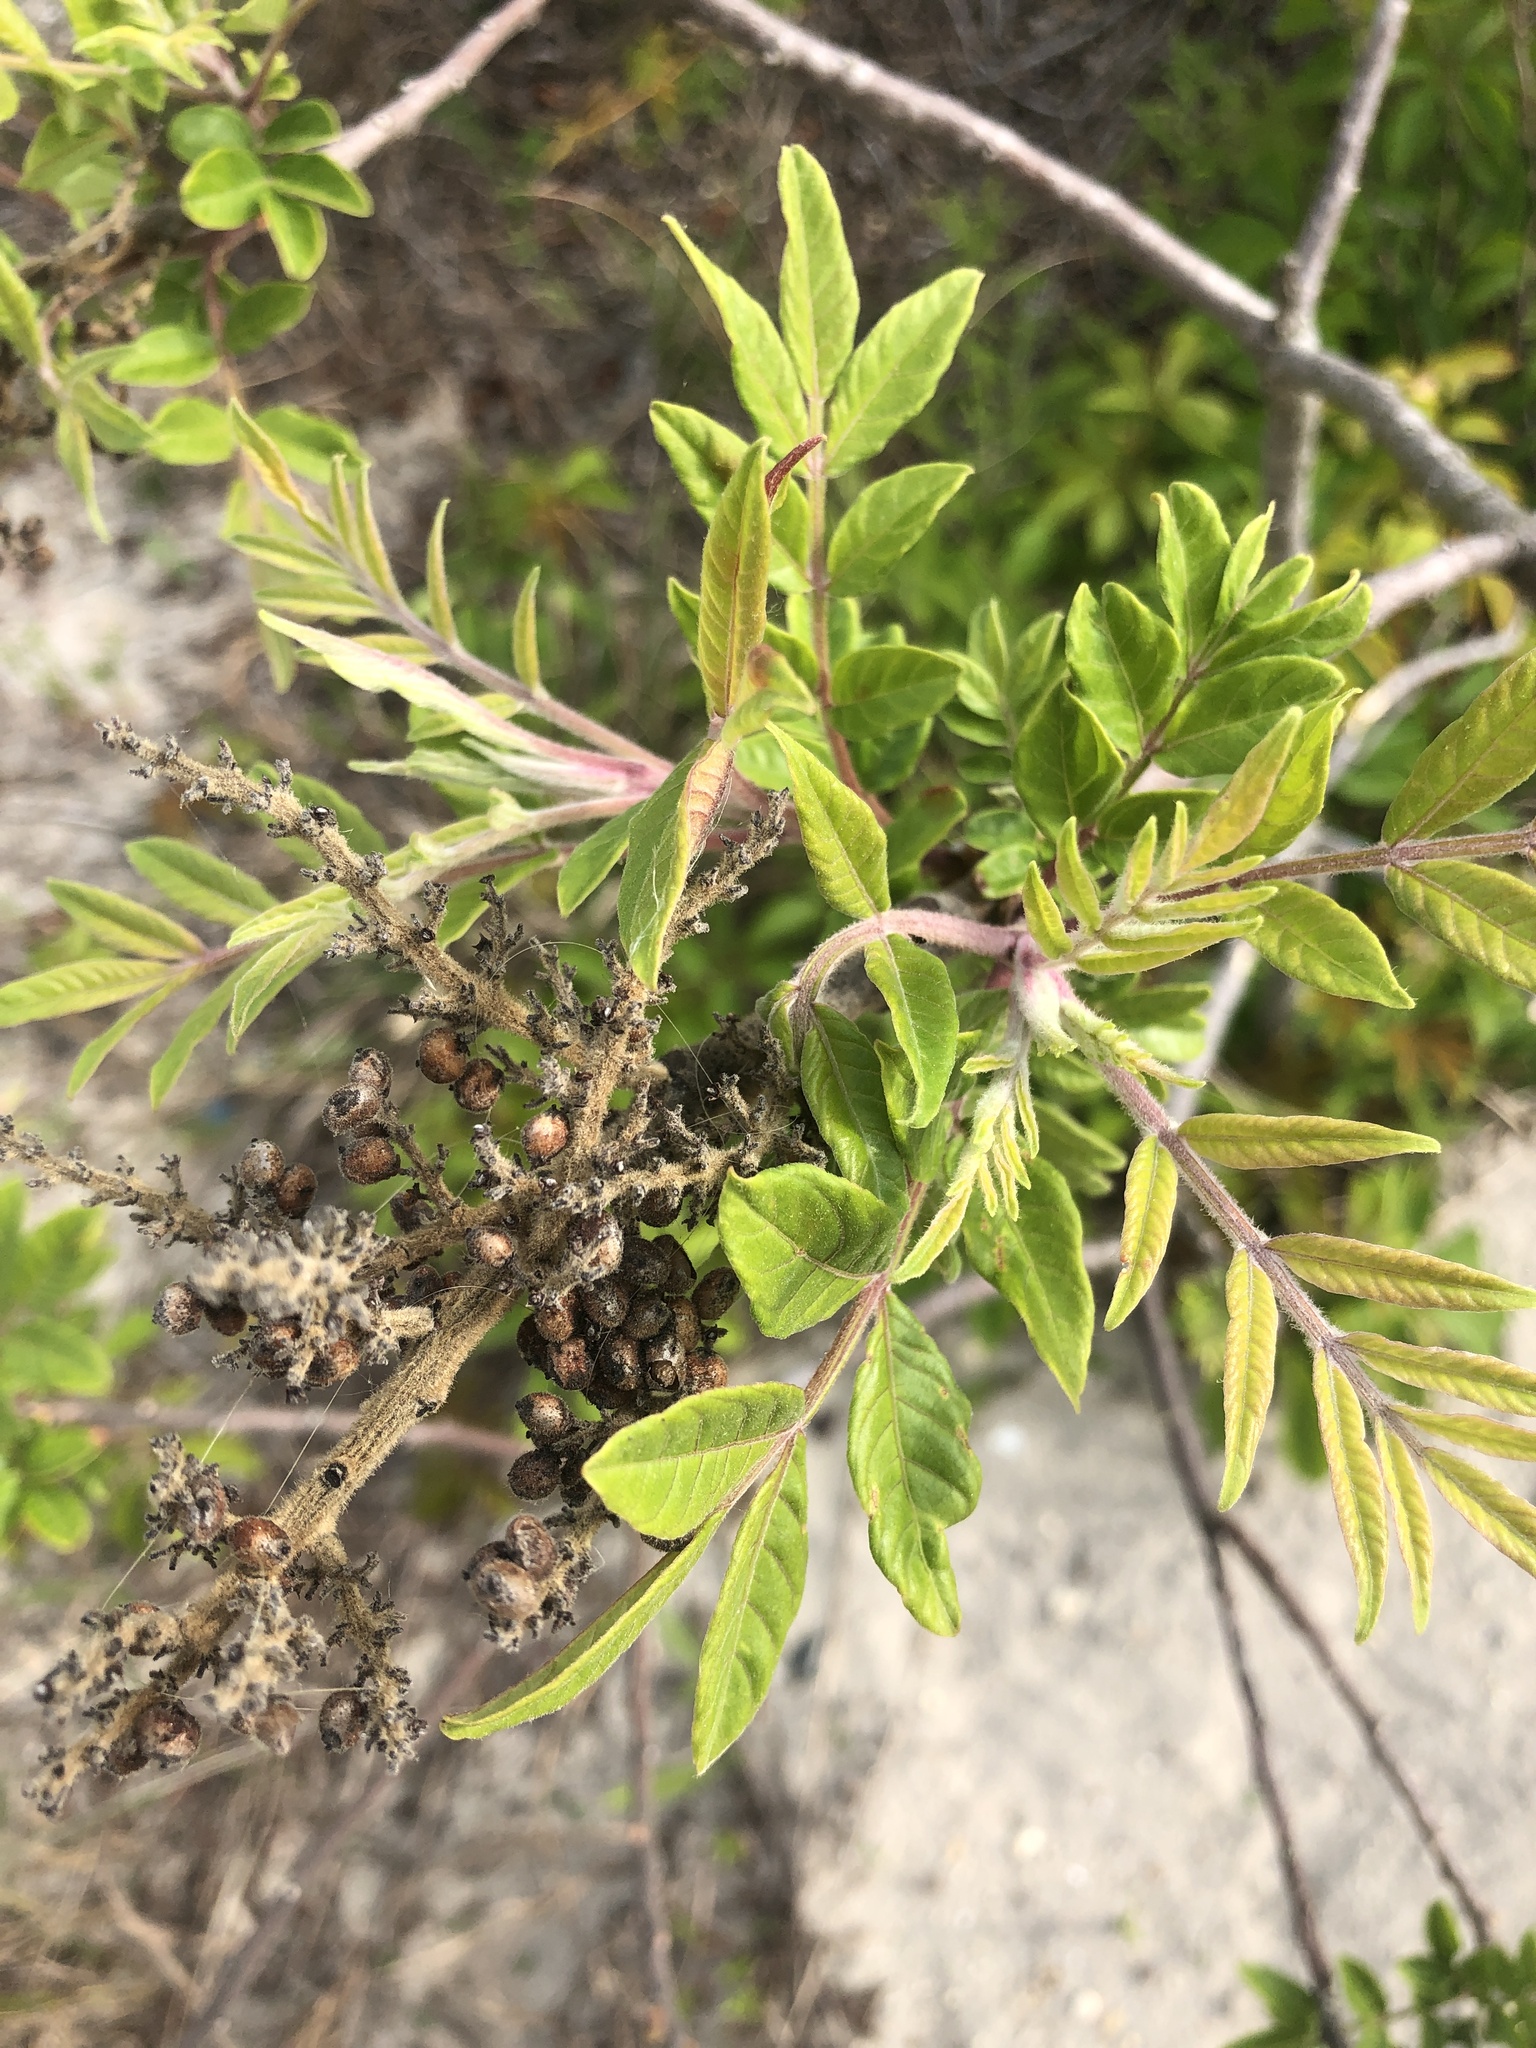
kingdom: Plantae
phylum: Tracheophyta
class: Magnoliopsida
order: Sapindales
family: Anacardiaceae
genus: Rhus
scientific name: Rhus copallina
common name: Shining sumac
